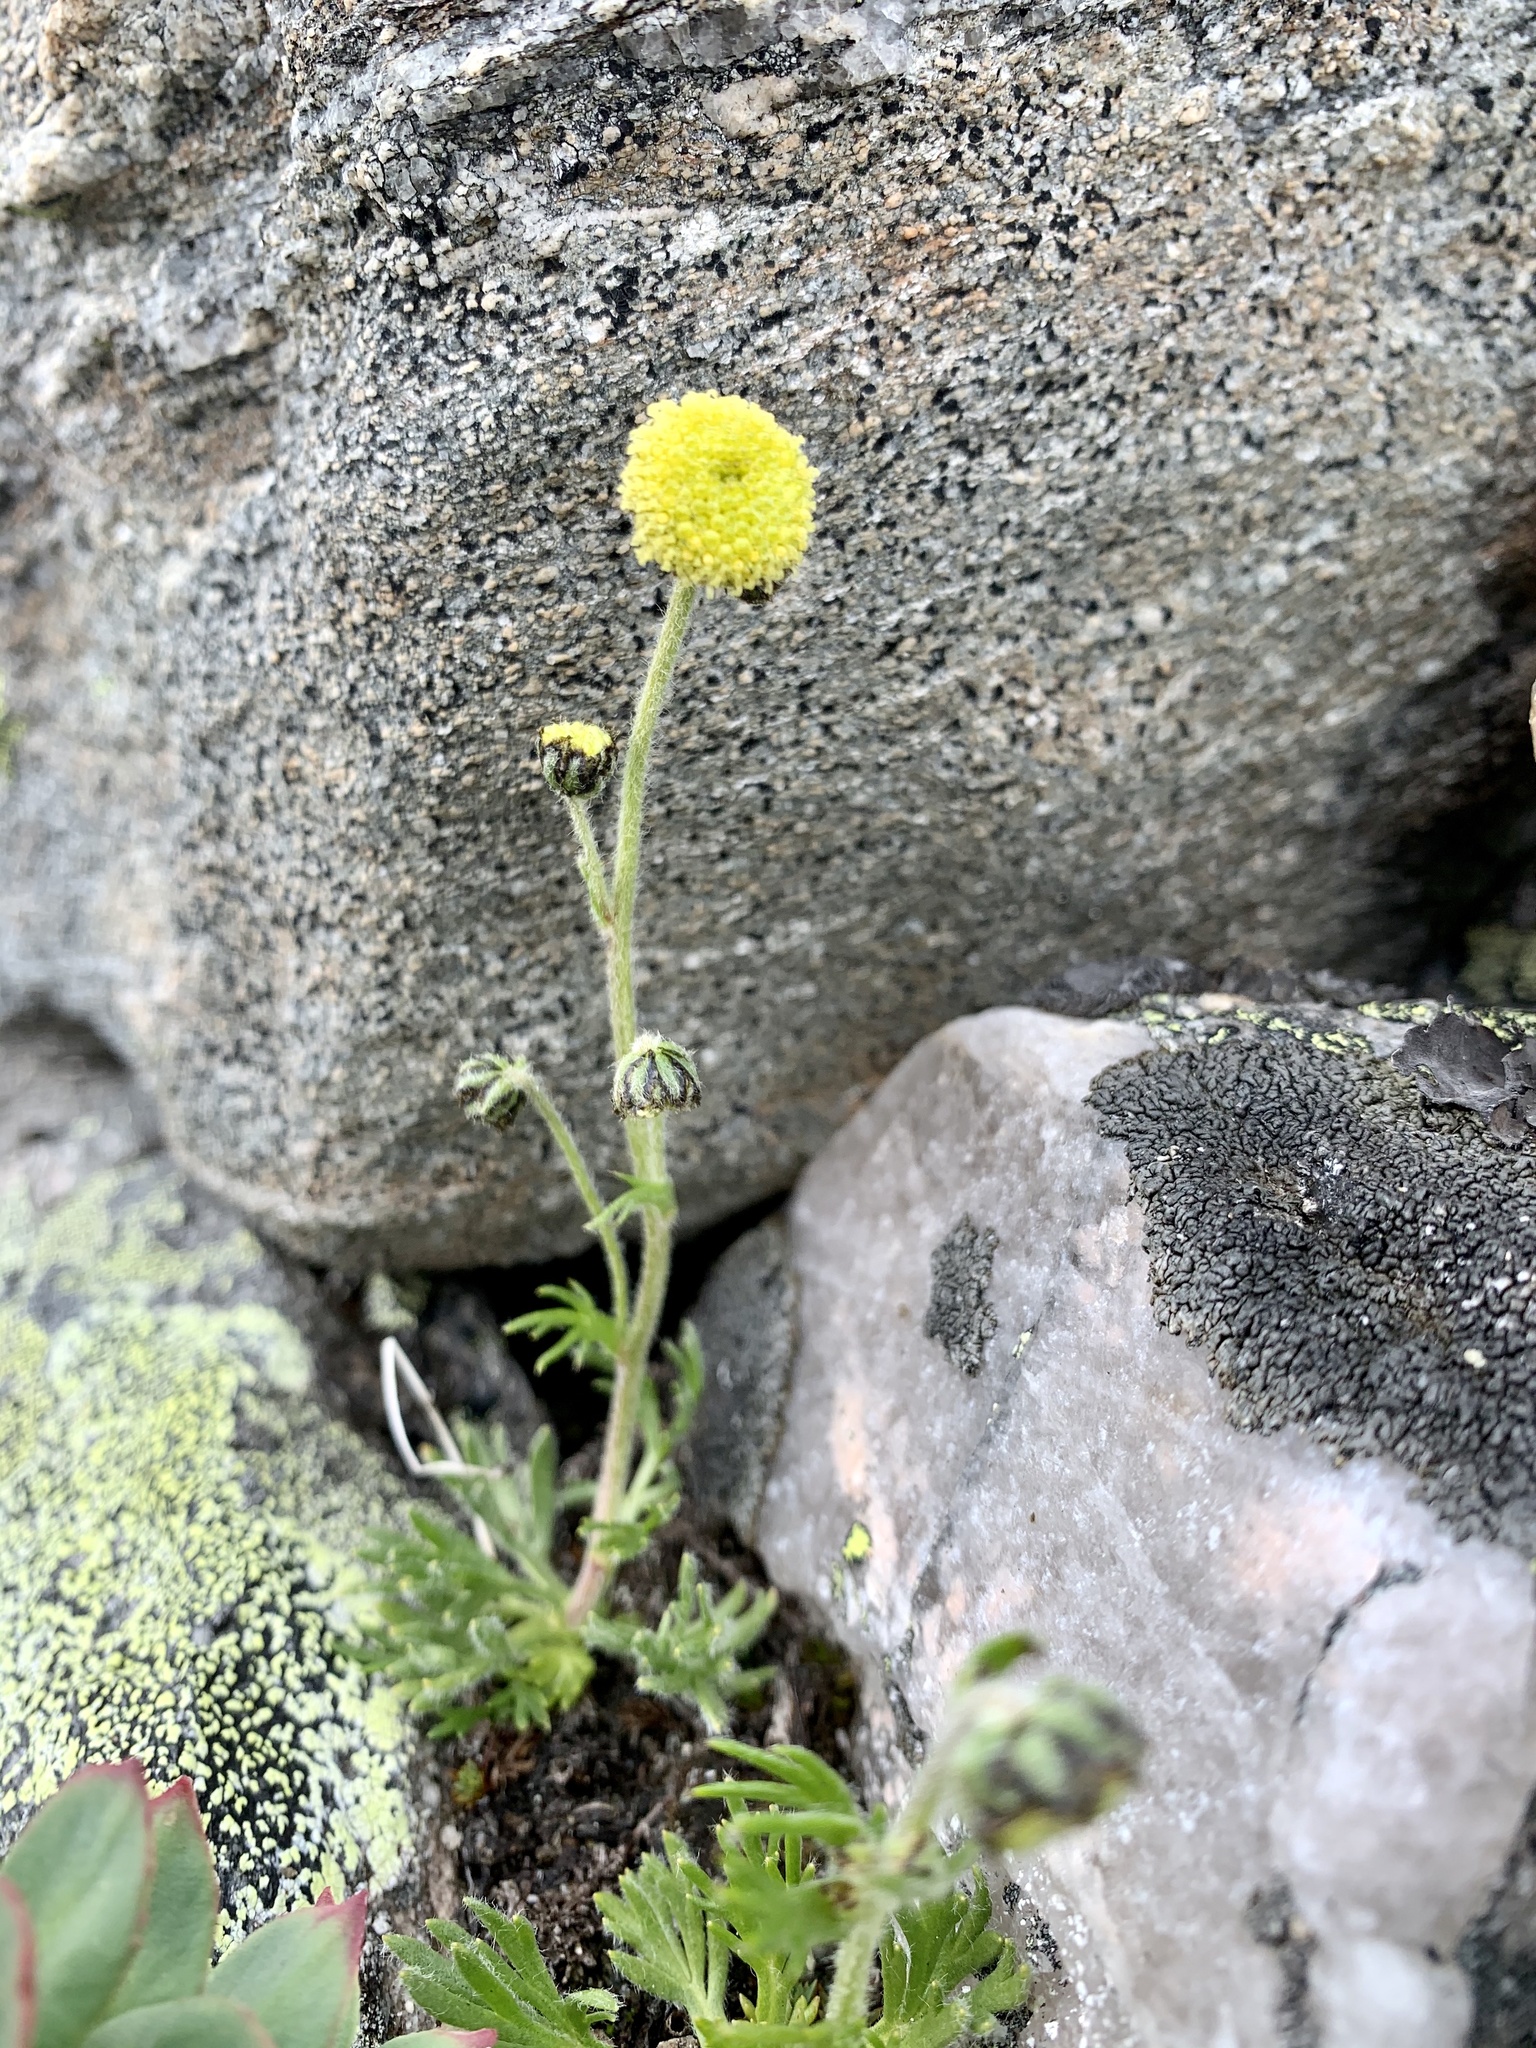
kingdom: Plantae
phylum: Tracheophyta
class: Magnoliopsida
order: Asterales
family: Asteraceae
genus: Artemisia
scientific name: Artemisia norvegica
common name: Norwegian mugwort
